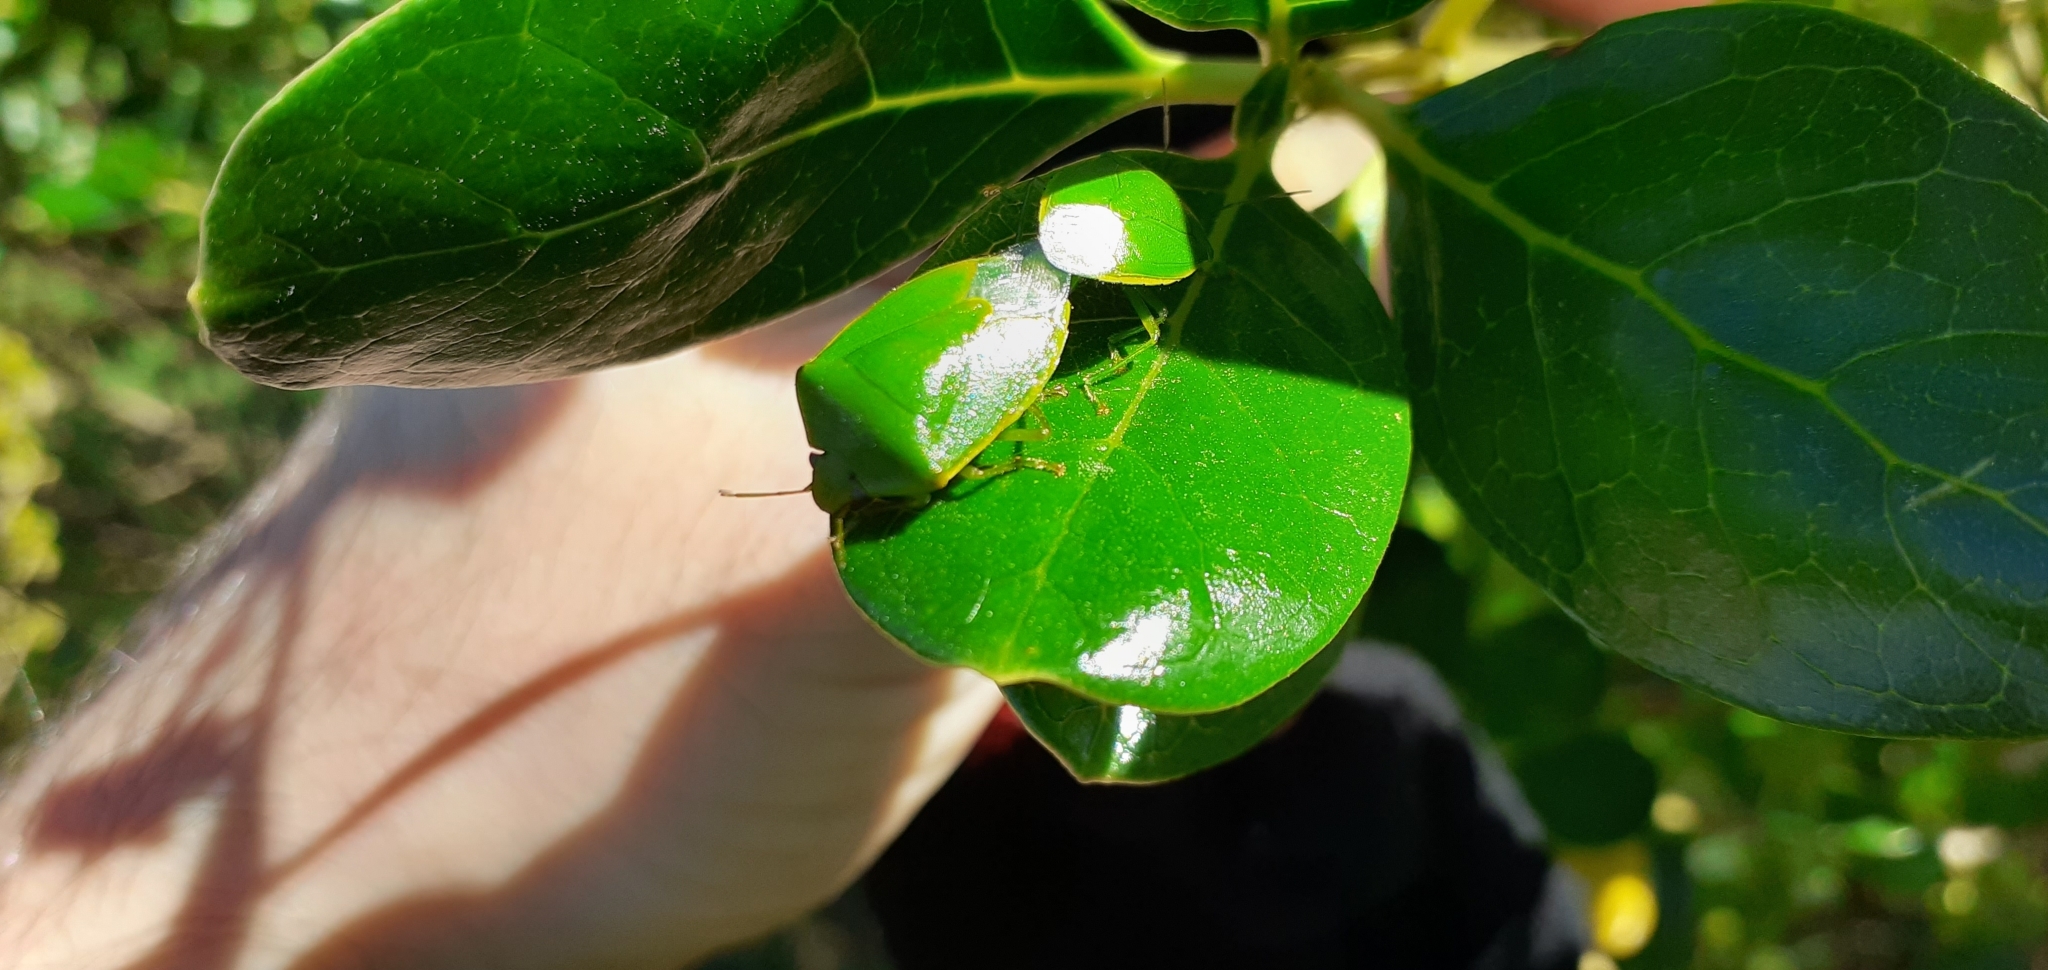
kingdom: Animalia
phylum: Arthropoda
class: Insecta
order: Hemiptera
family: Pentatomidae
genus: Glaucias
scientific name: Glaucias amyota
